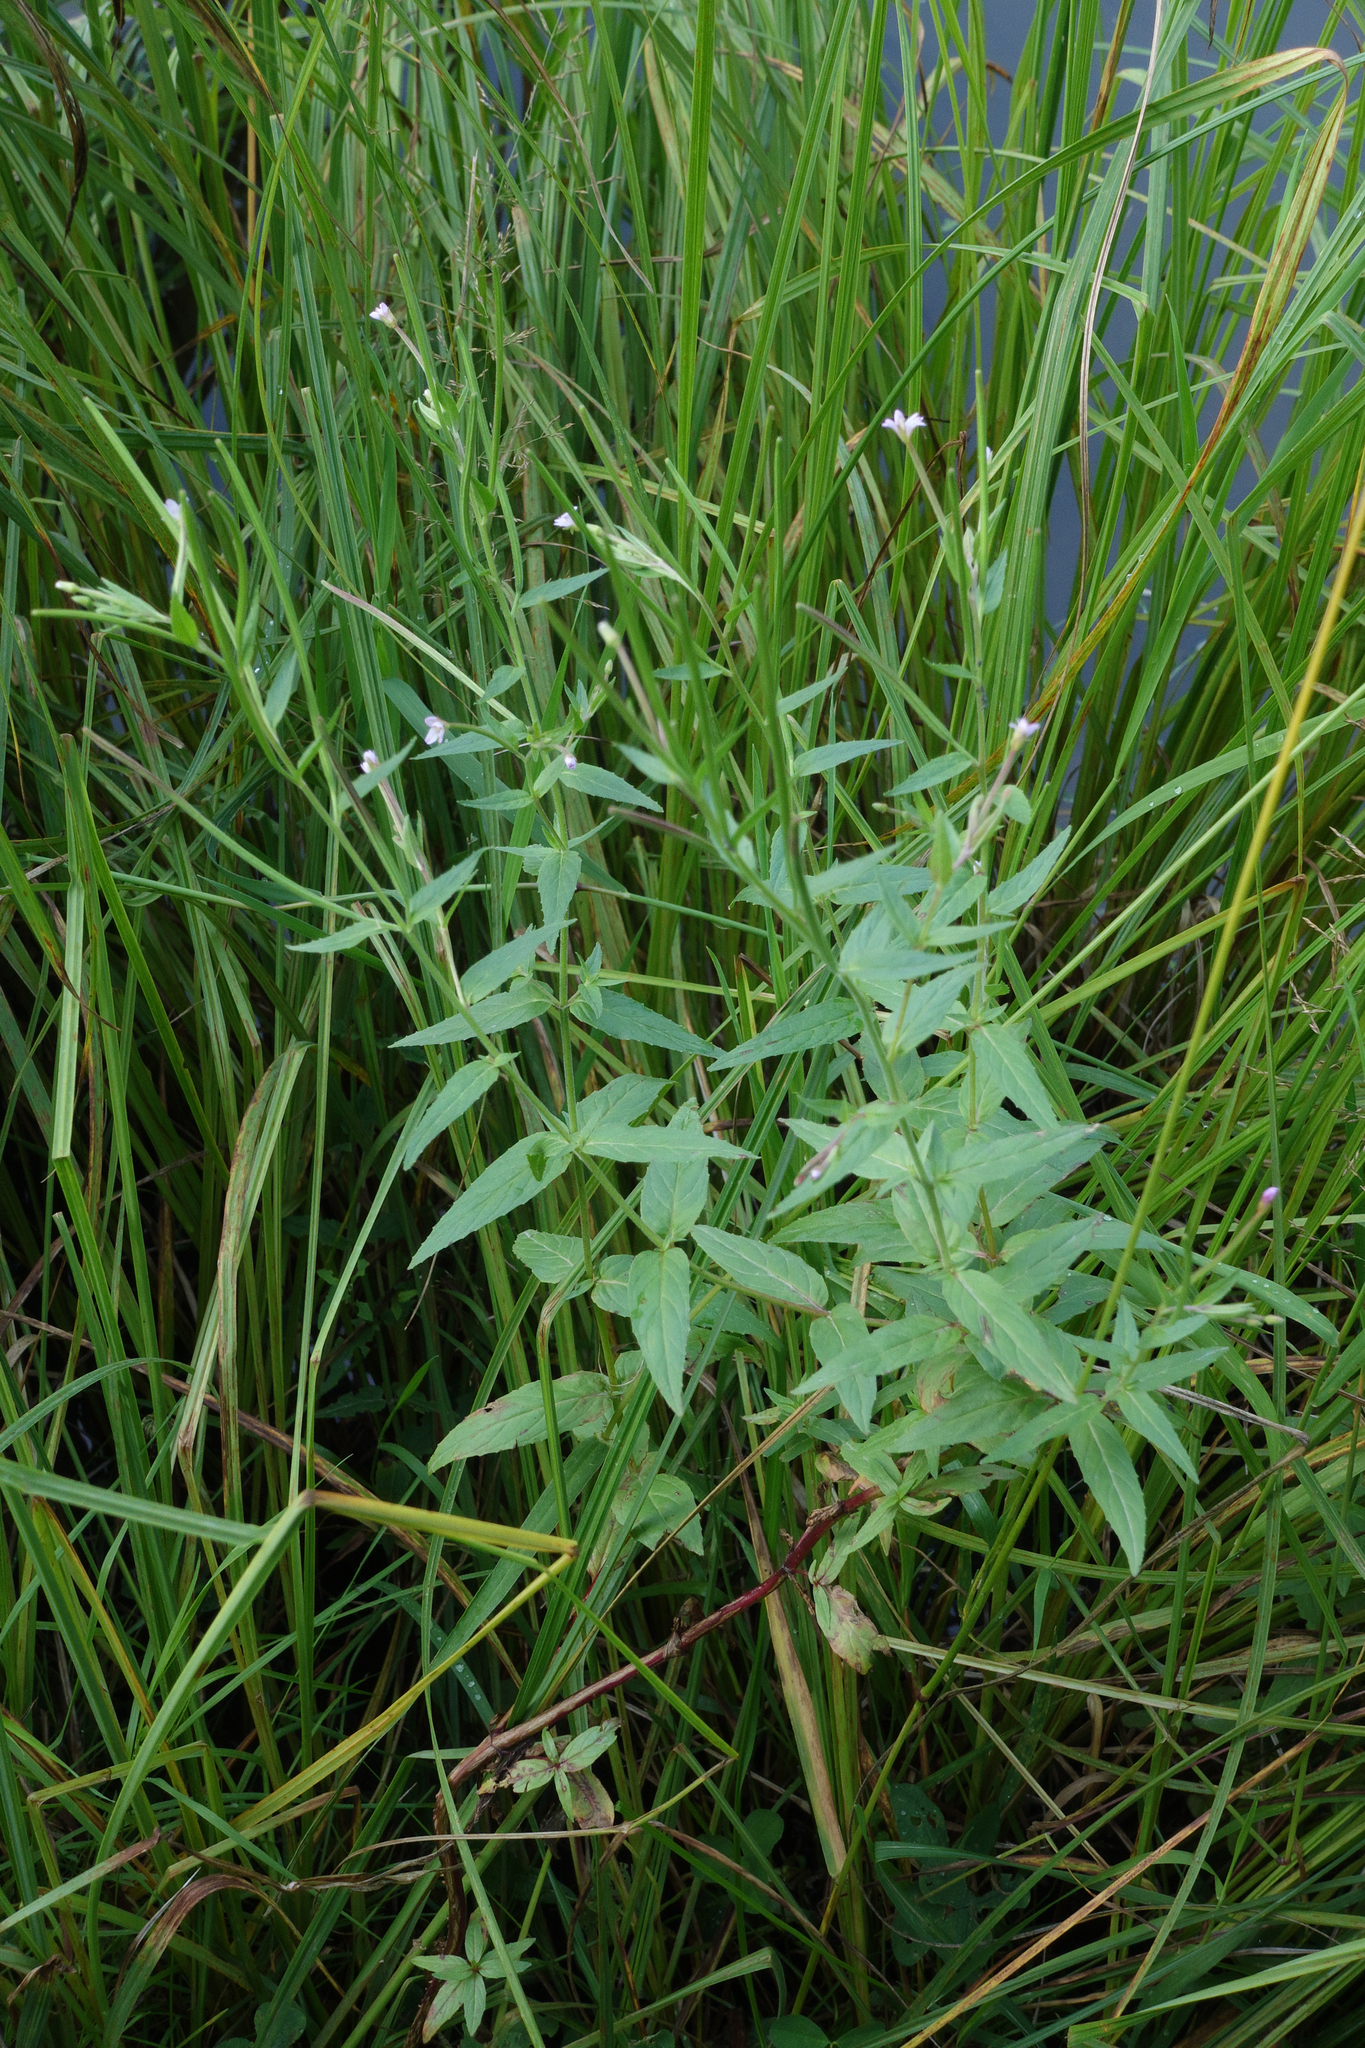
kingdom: Plantae
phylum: Tracheophyta
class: Magnoliopsida
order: Myrtales
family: Onagraceae
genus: Epilobium
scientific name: Epilobium ciliatum
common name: American willowherb
